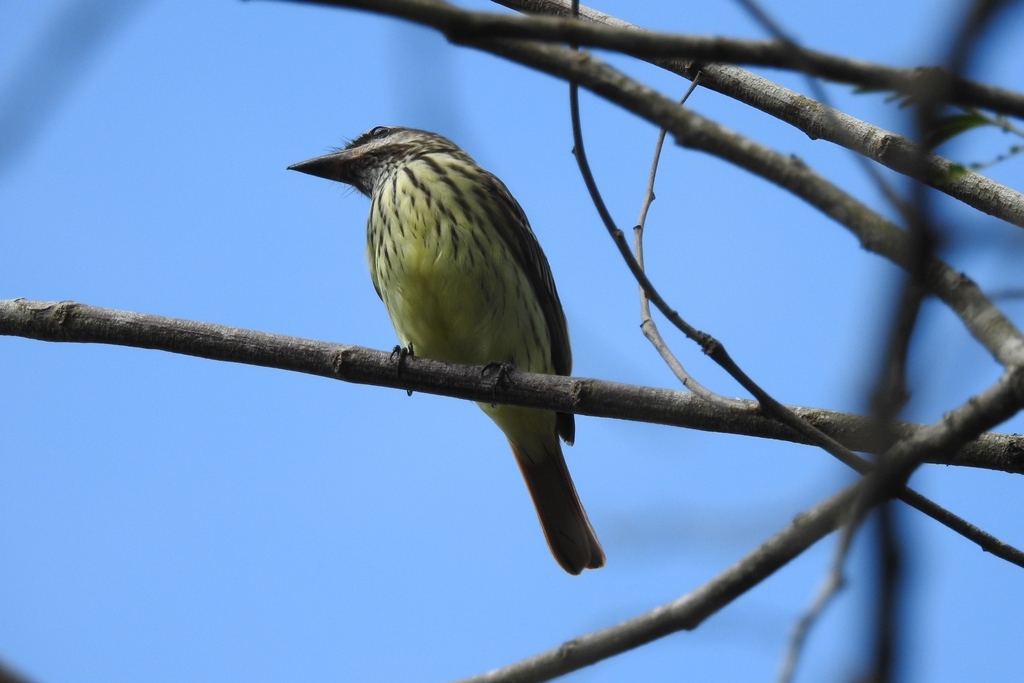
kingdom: Animalia
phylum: Chordata
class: Aves
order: Passeriformes
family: Tyrannidae
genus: Myiodynastes
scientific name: Myiodynastes luteiventris
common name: Sulphur-bellied flycatcher
